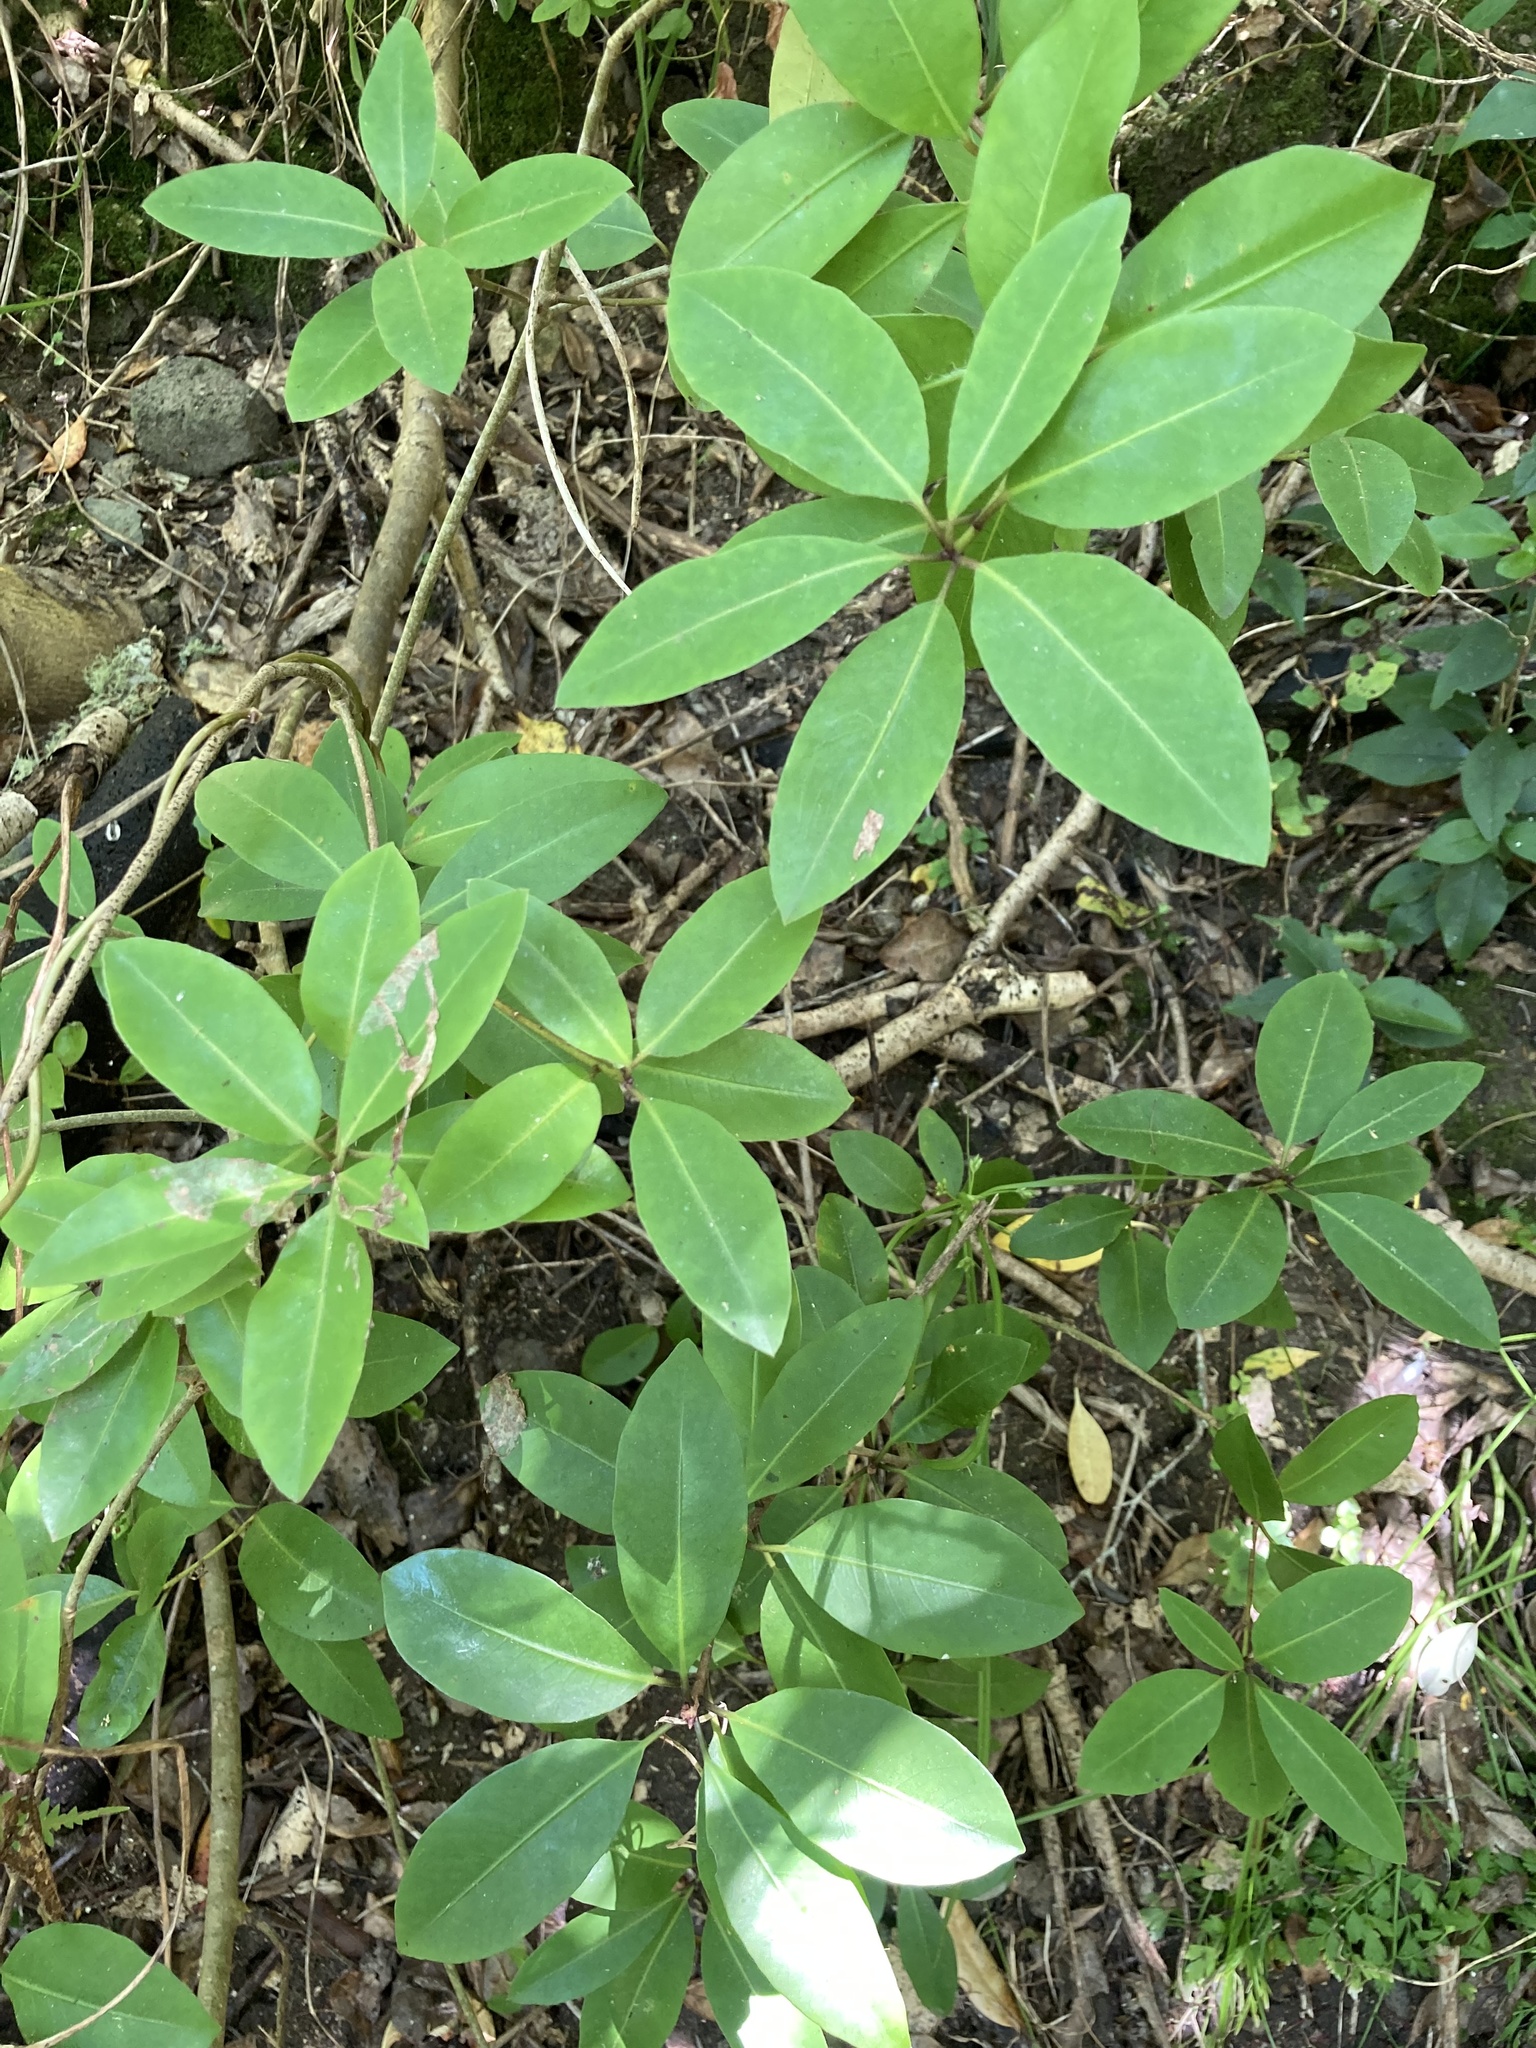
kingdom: Plantae
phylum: Tracheophyta
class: Magnoliopsida
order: Apiales
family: Pittosporaceae
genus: Pittosporum
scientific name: Pittosporum umbellatum
